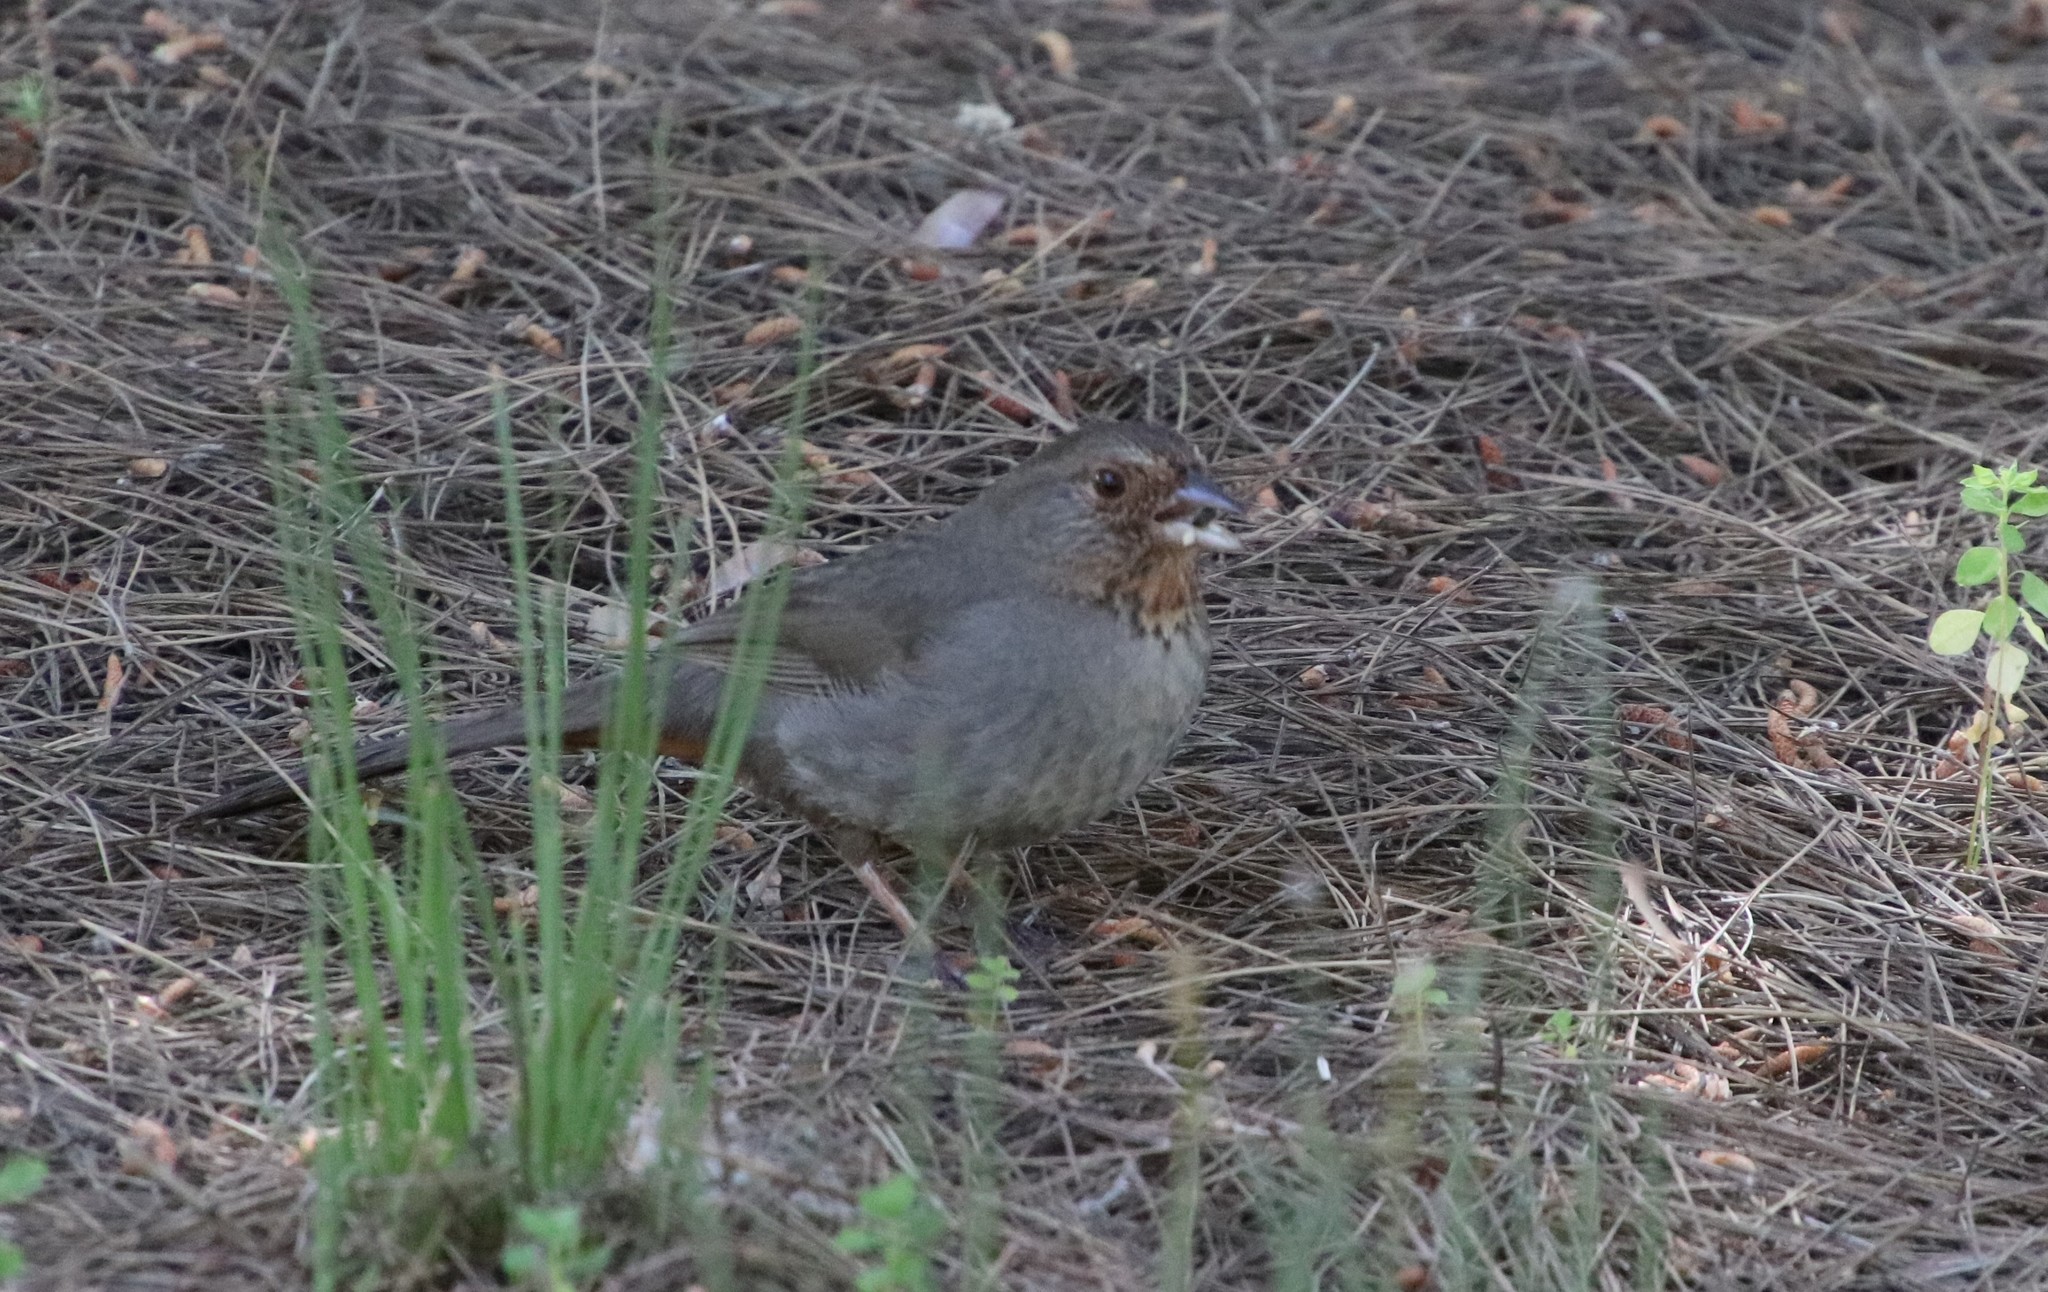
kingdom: Animalia
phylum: Chordata
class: Aves
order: Passeriformes
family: Passerellidae
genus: Melozone
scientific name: Melozone crissalis
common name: California towhee
